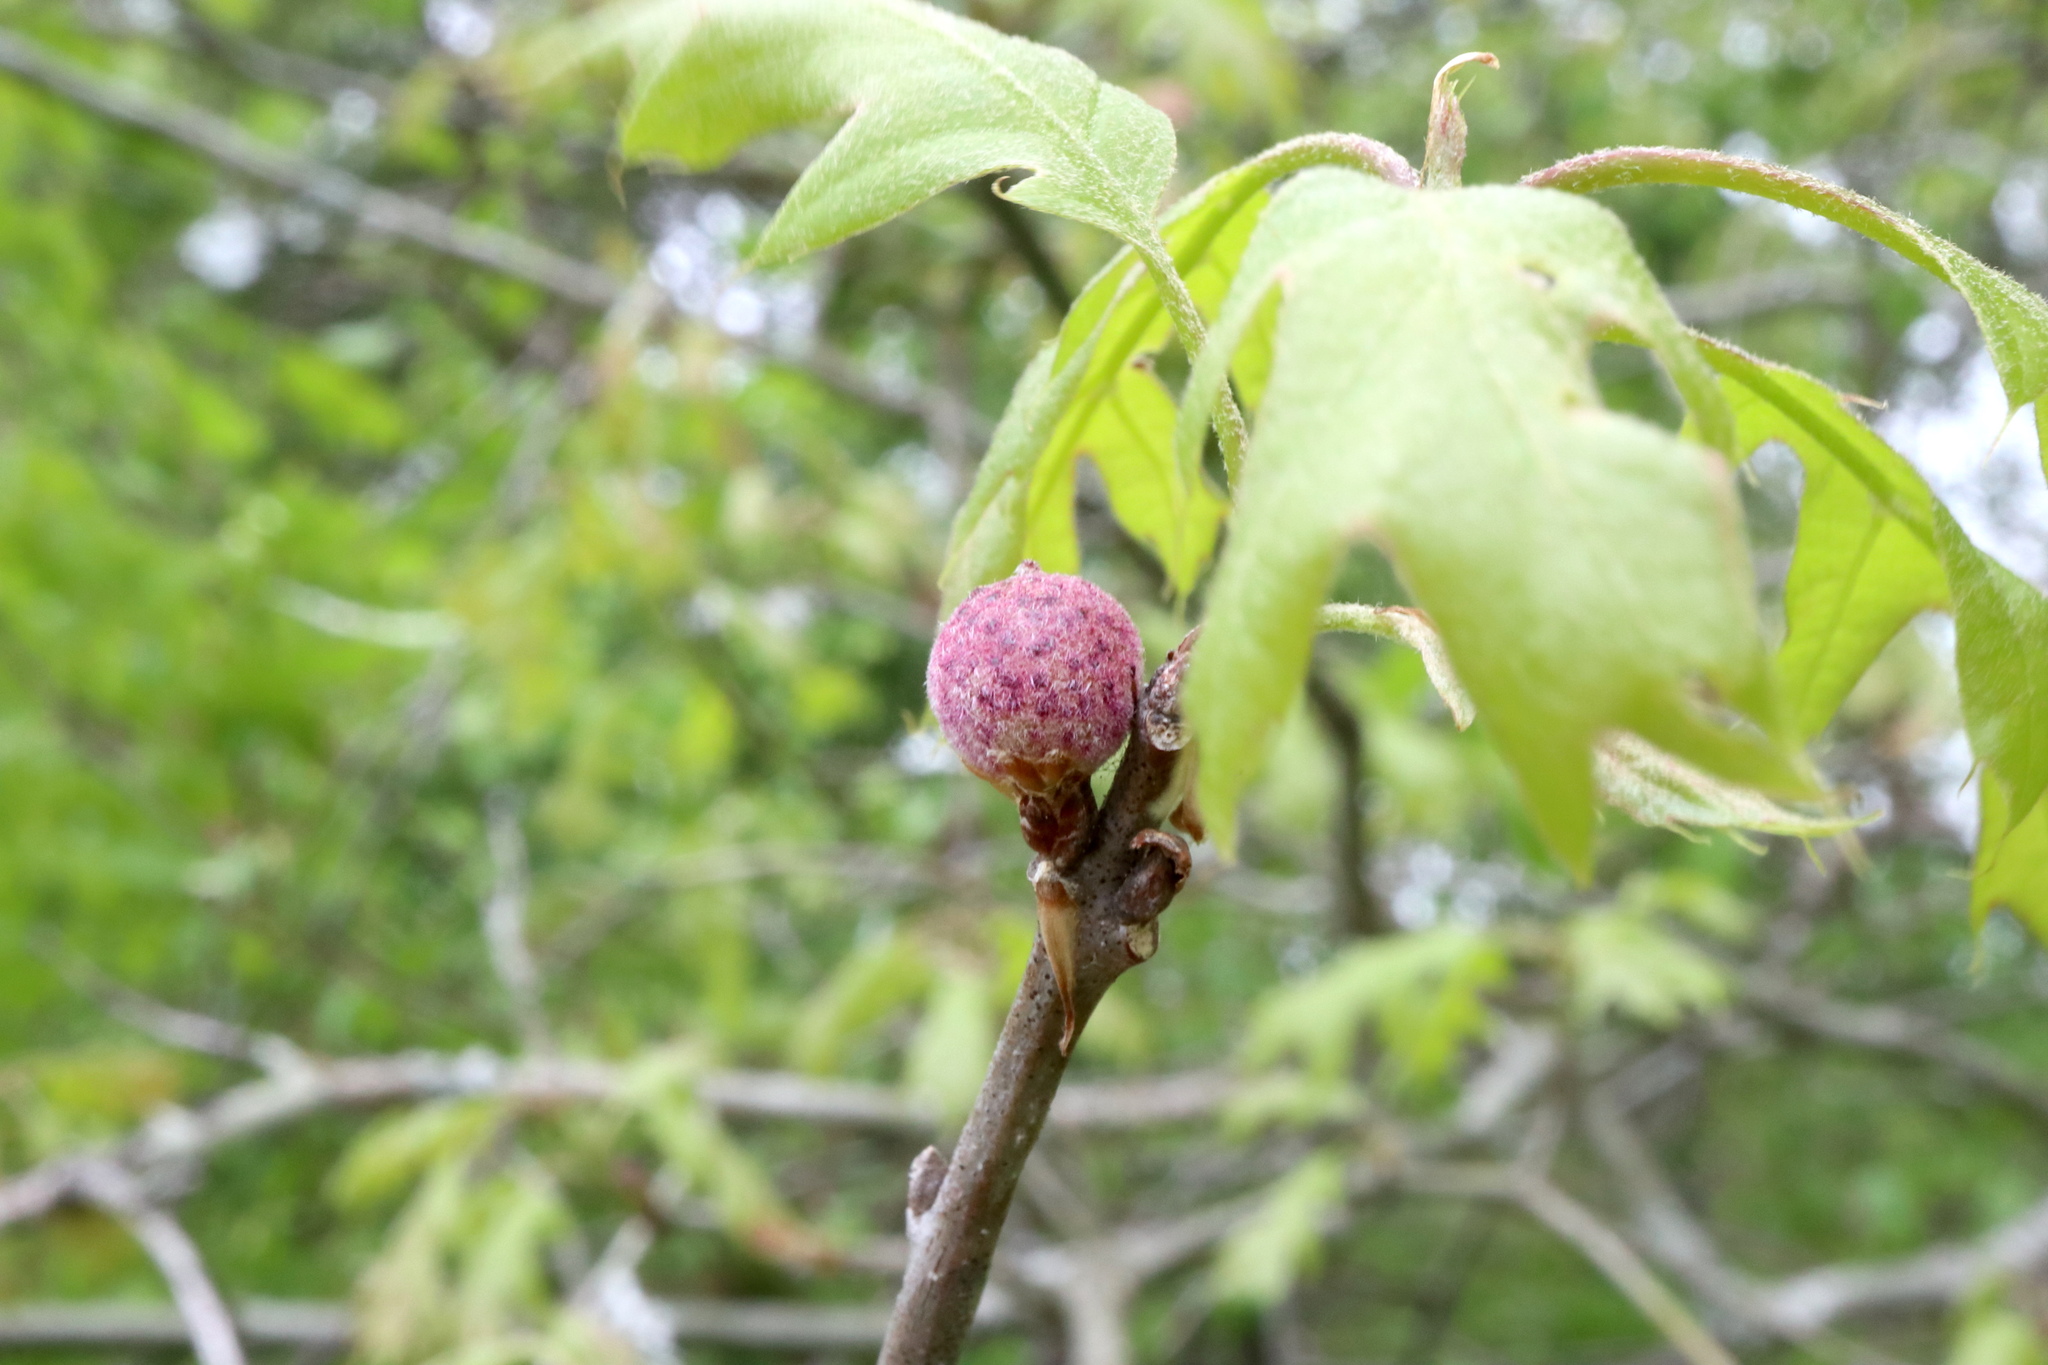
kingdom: Animalia
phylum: Arthropoda
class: Insecta
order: Hymenoptera
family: Cynipidae
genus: Amphibolips
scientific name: Amphibolips
